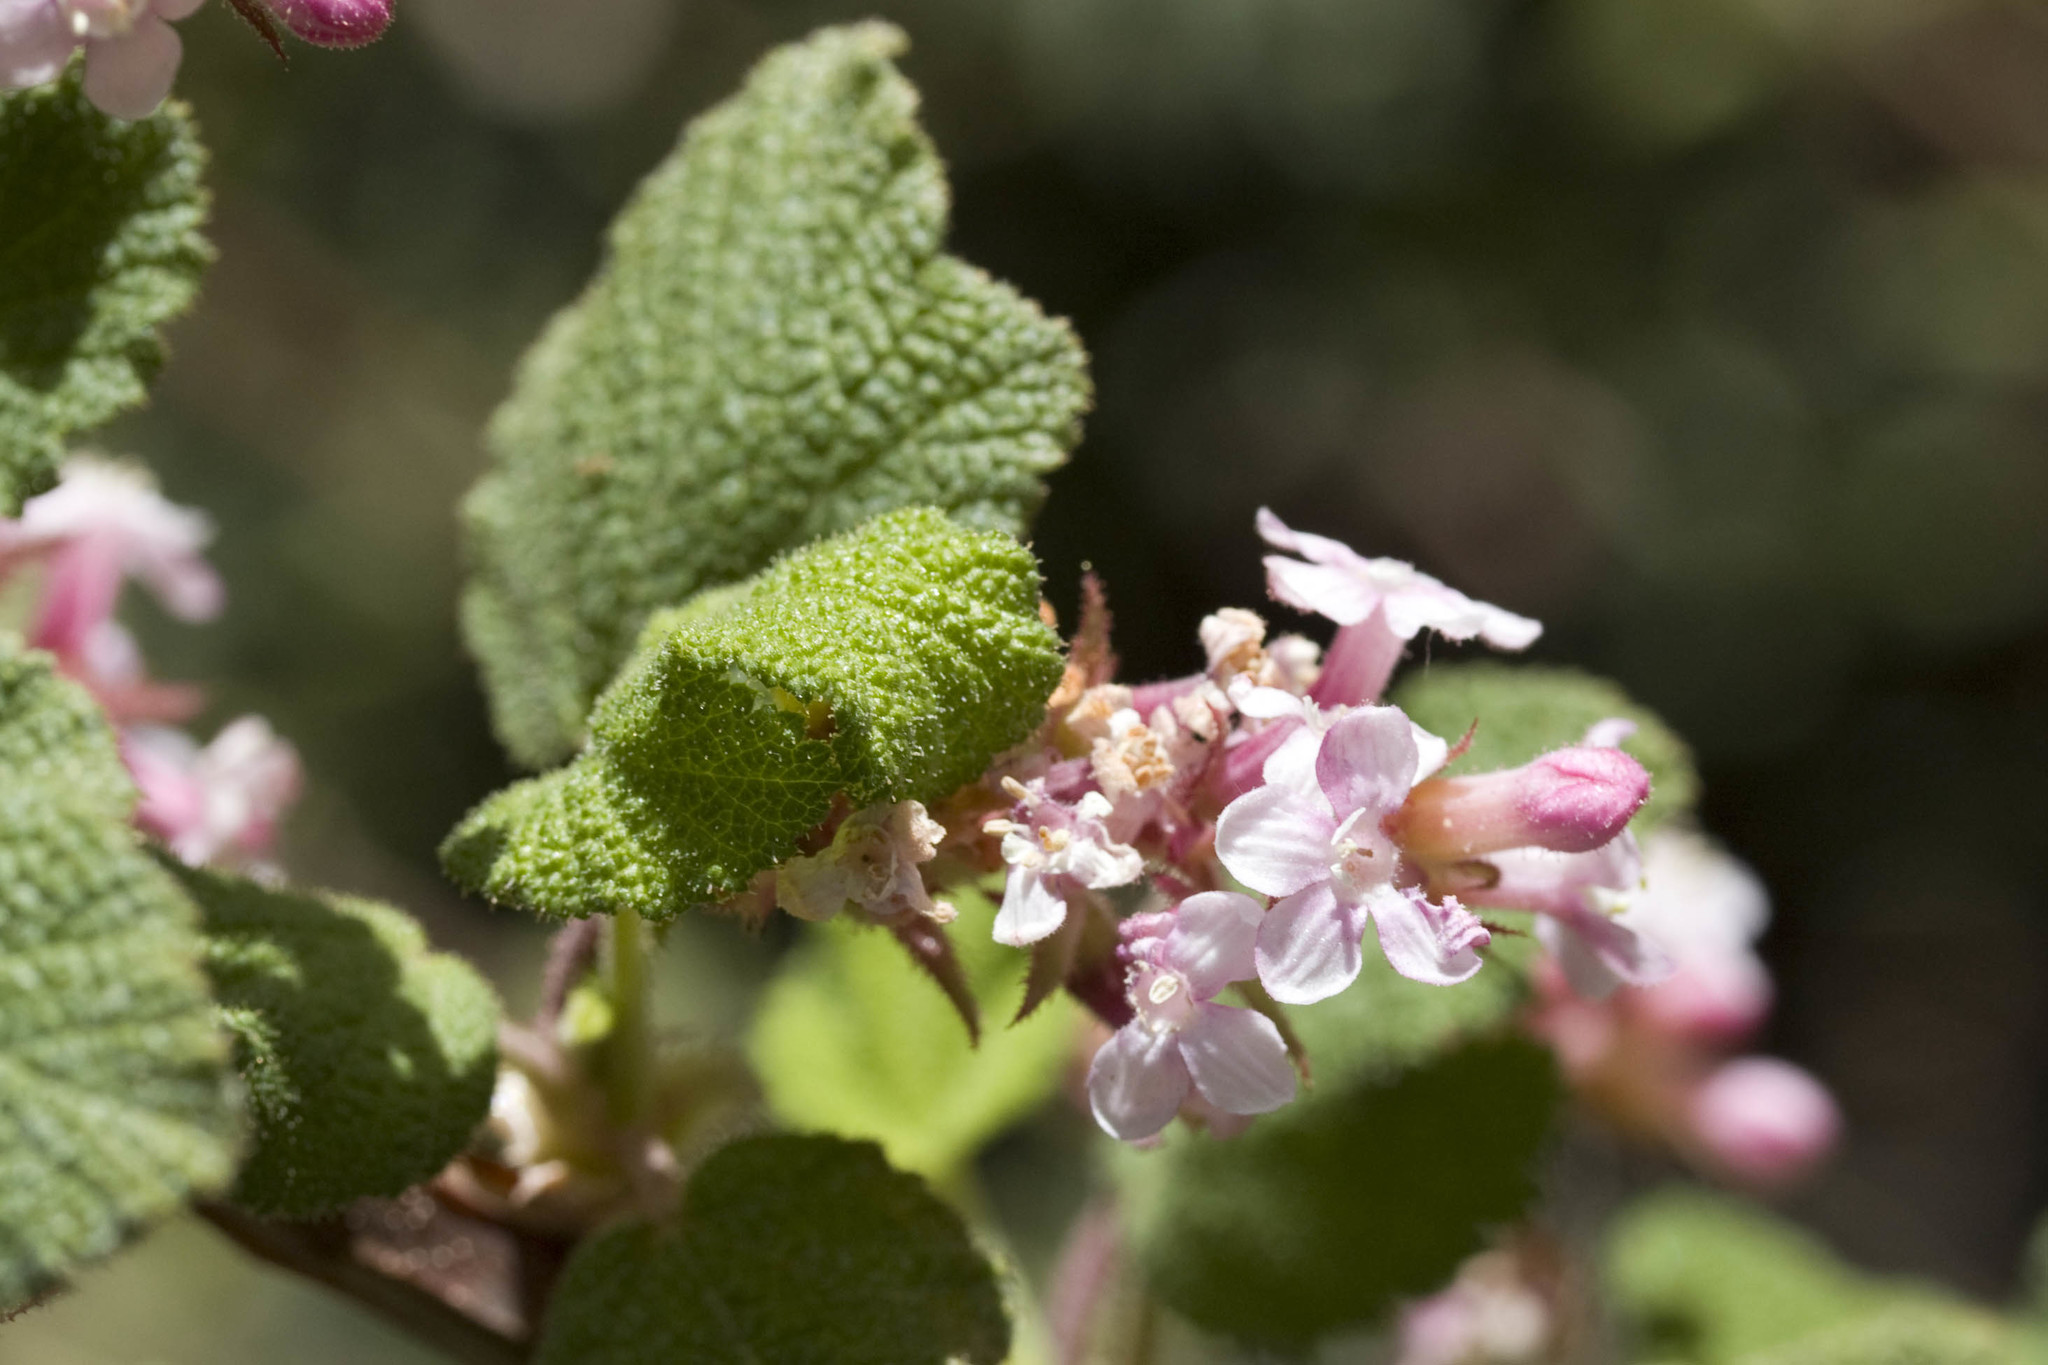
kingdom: Plantae
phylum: Tracheophyta
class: Magnoliopsida
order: Saxifragales
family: Grossulariaceae
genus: Ribes
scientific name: Ribes malvaceum
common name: Chaparral currant
